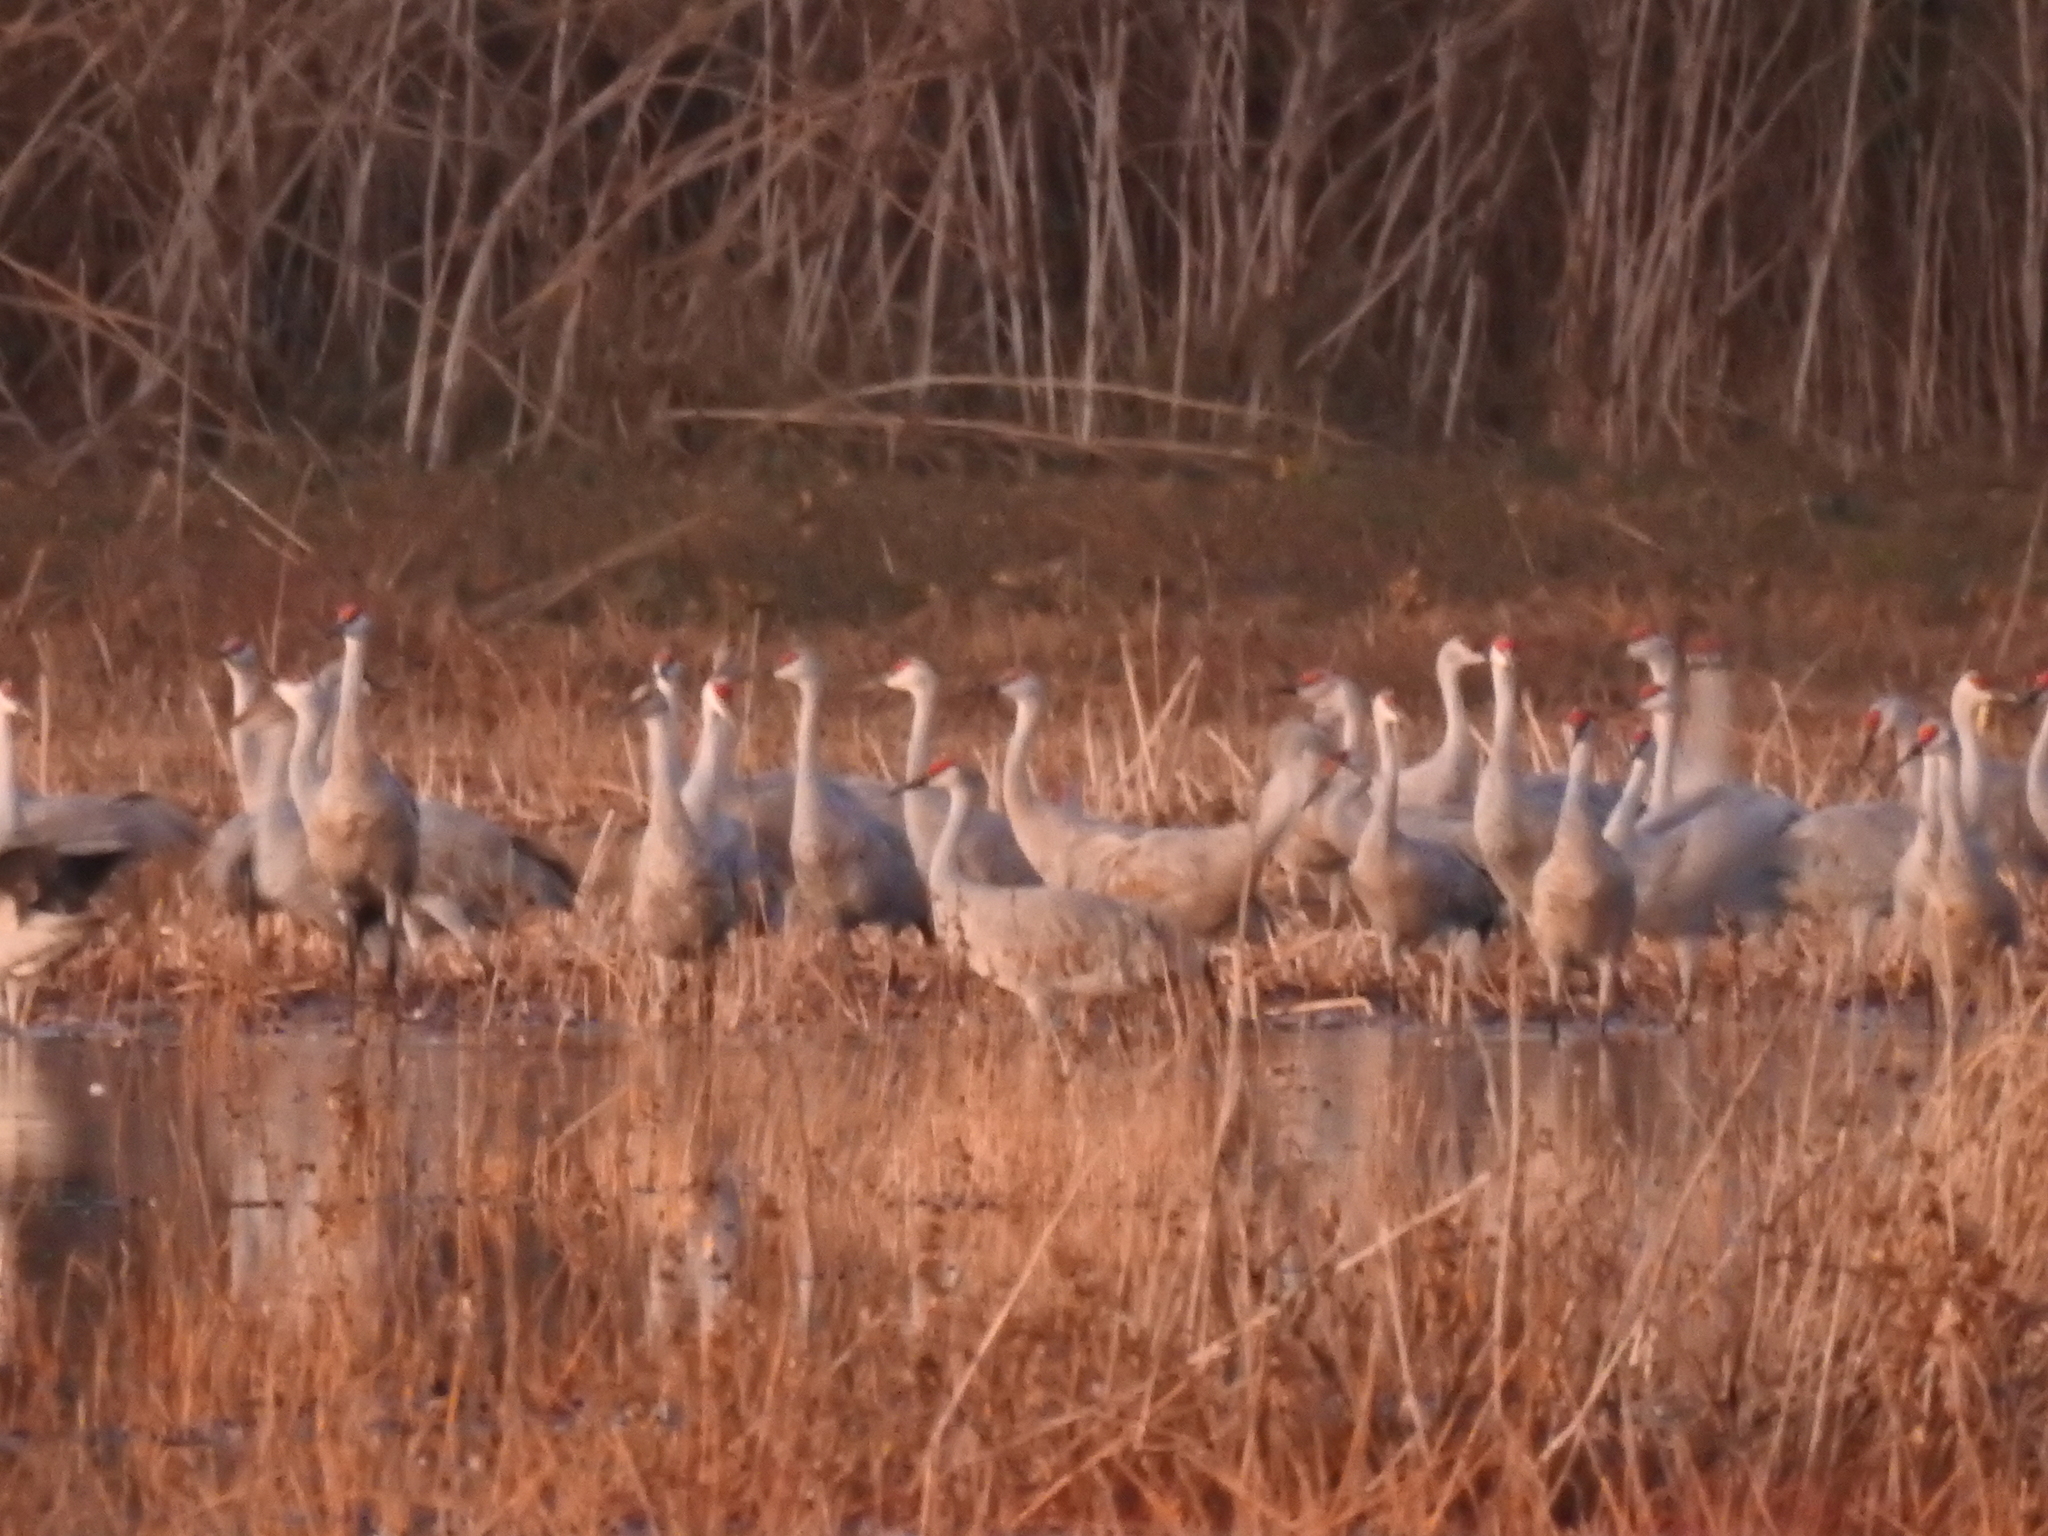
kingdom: Animalia
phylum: Chordata
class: Aves
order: Gruiformes
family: Gruidae
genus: Grus
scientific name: Grus canadensis
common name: Sandhill crane
